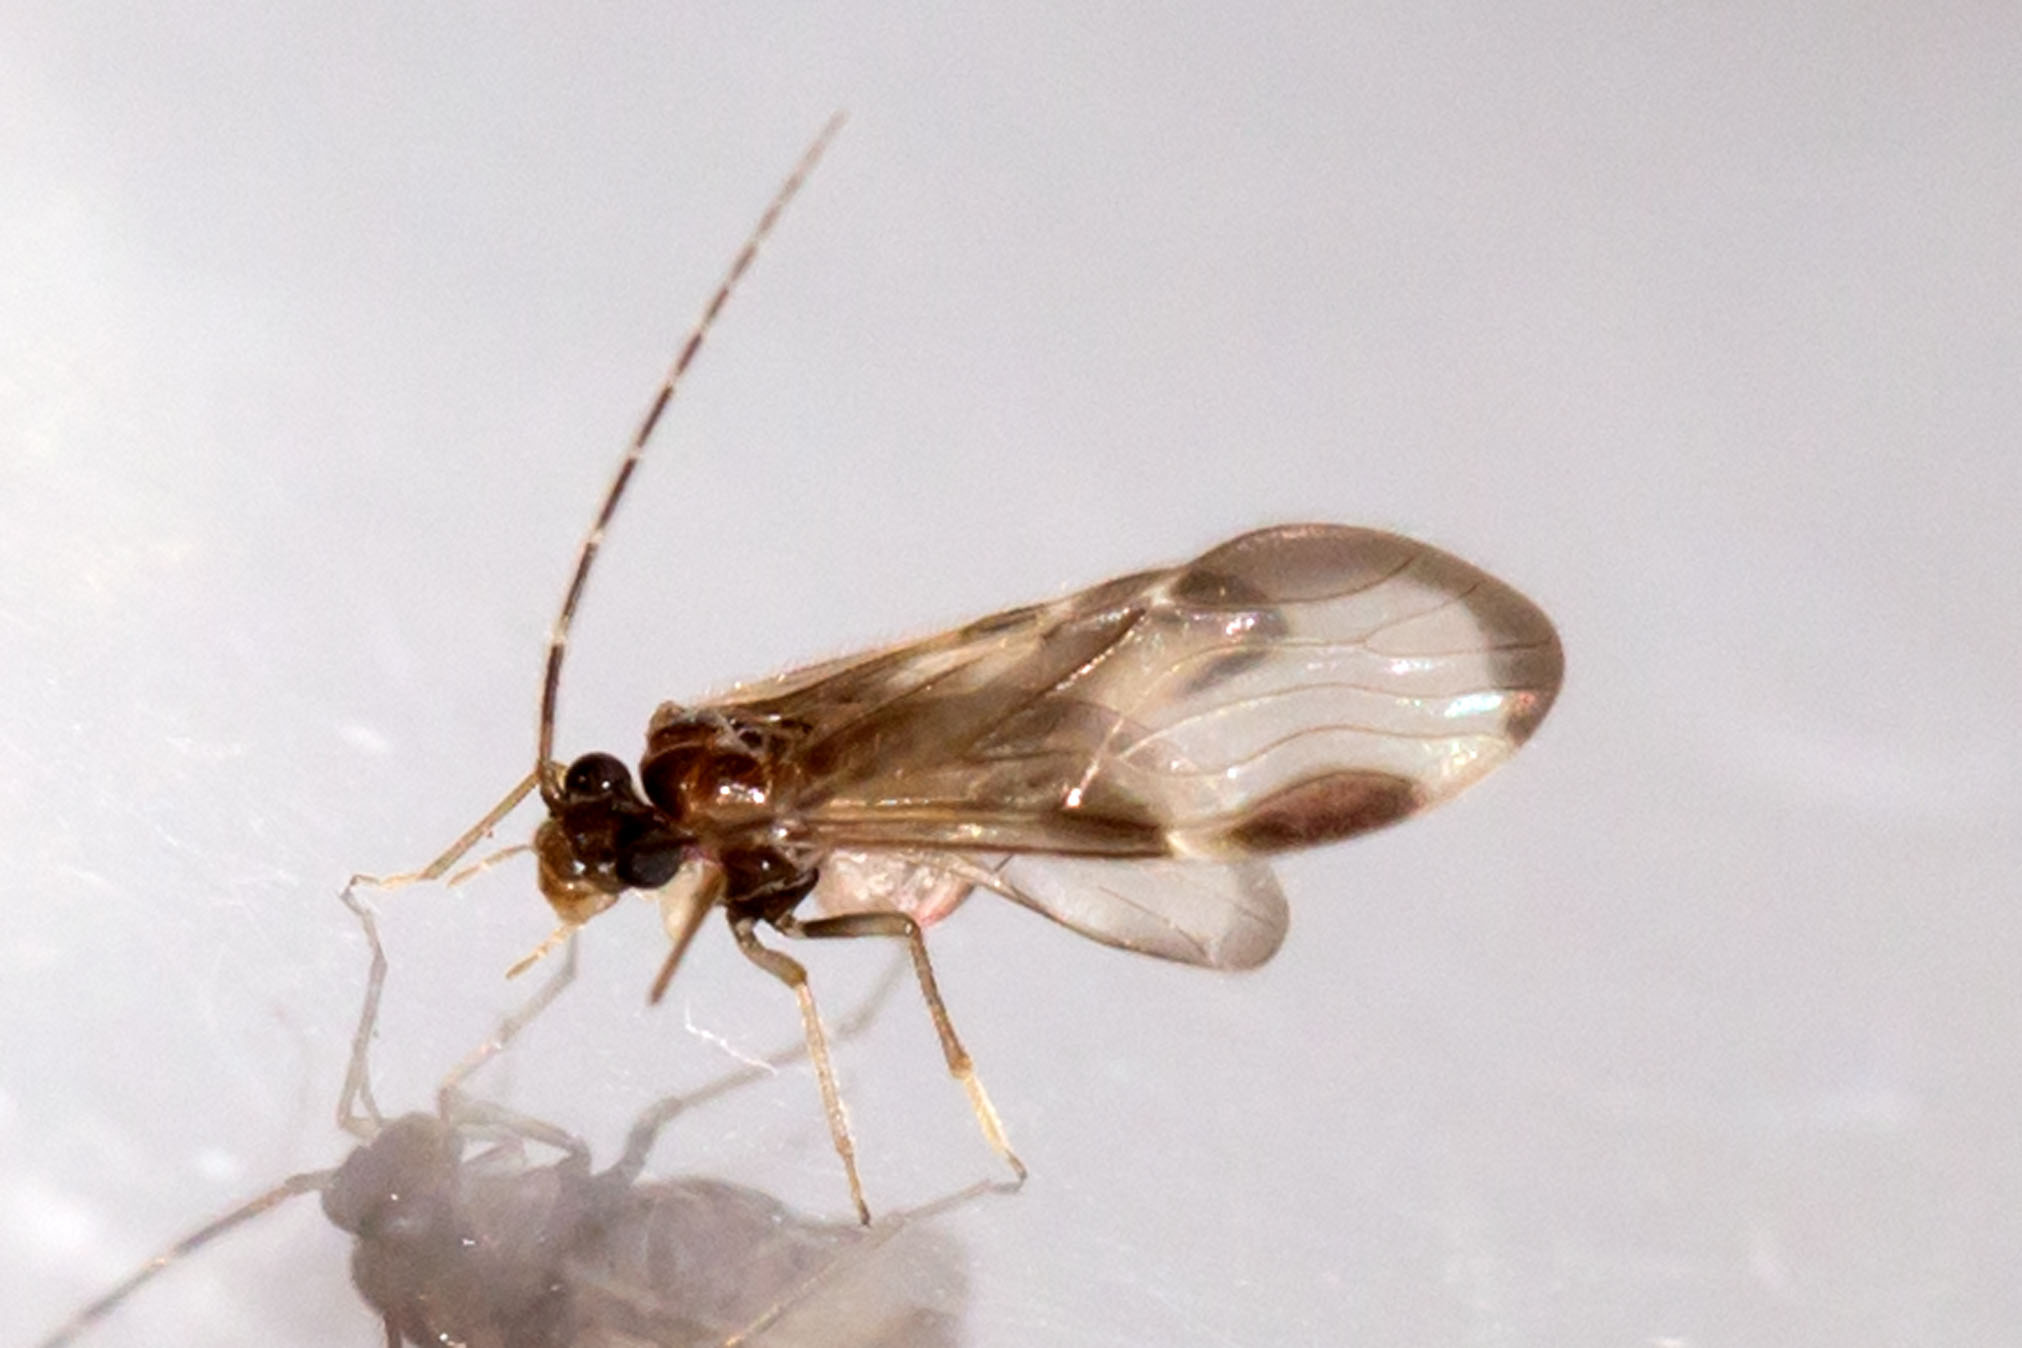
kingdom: Animalia
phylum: Arthropoda
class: Insecta
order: Psocodea
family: Amphipsocidae
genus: Polypsocus
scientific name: Polypsocus corruptus
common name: Corrupt barklouse
